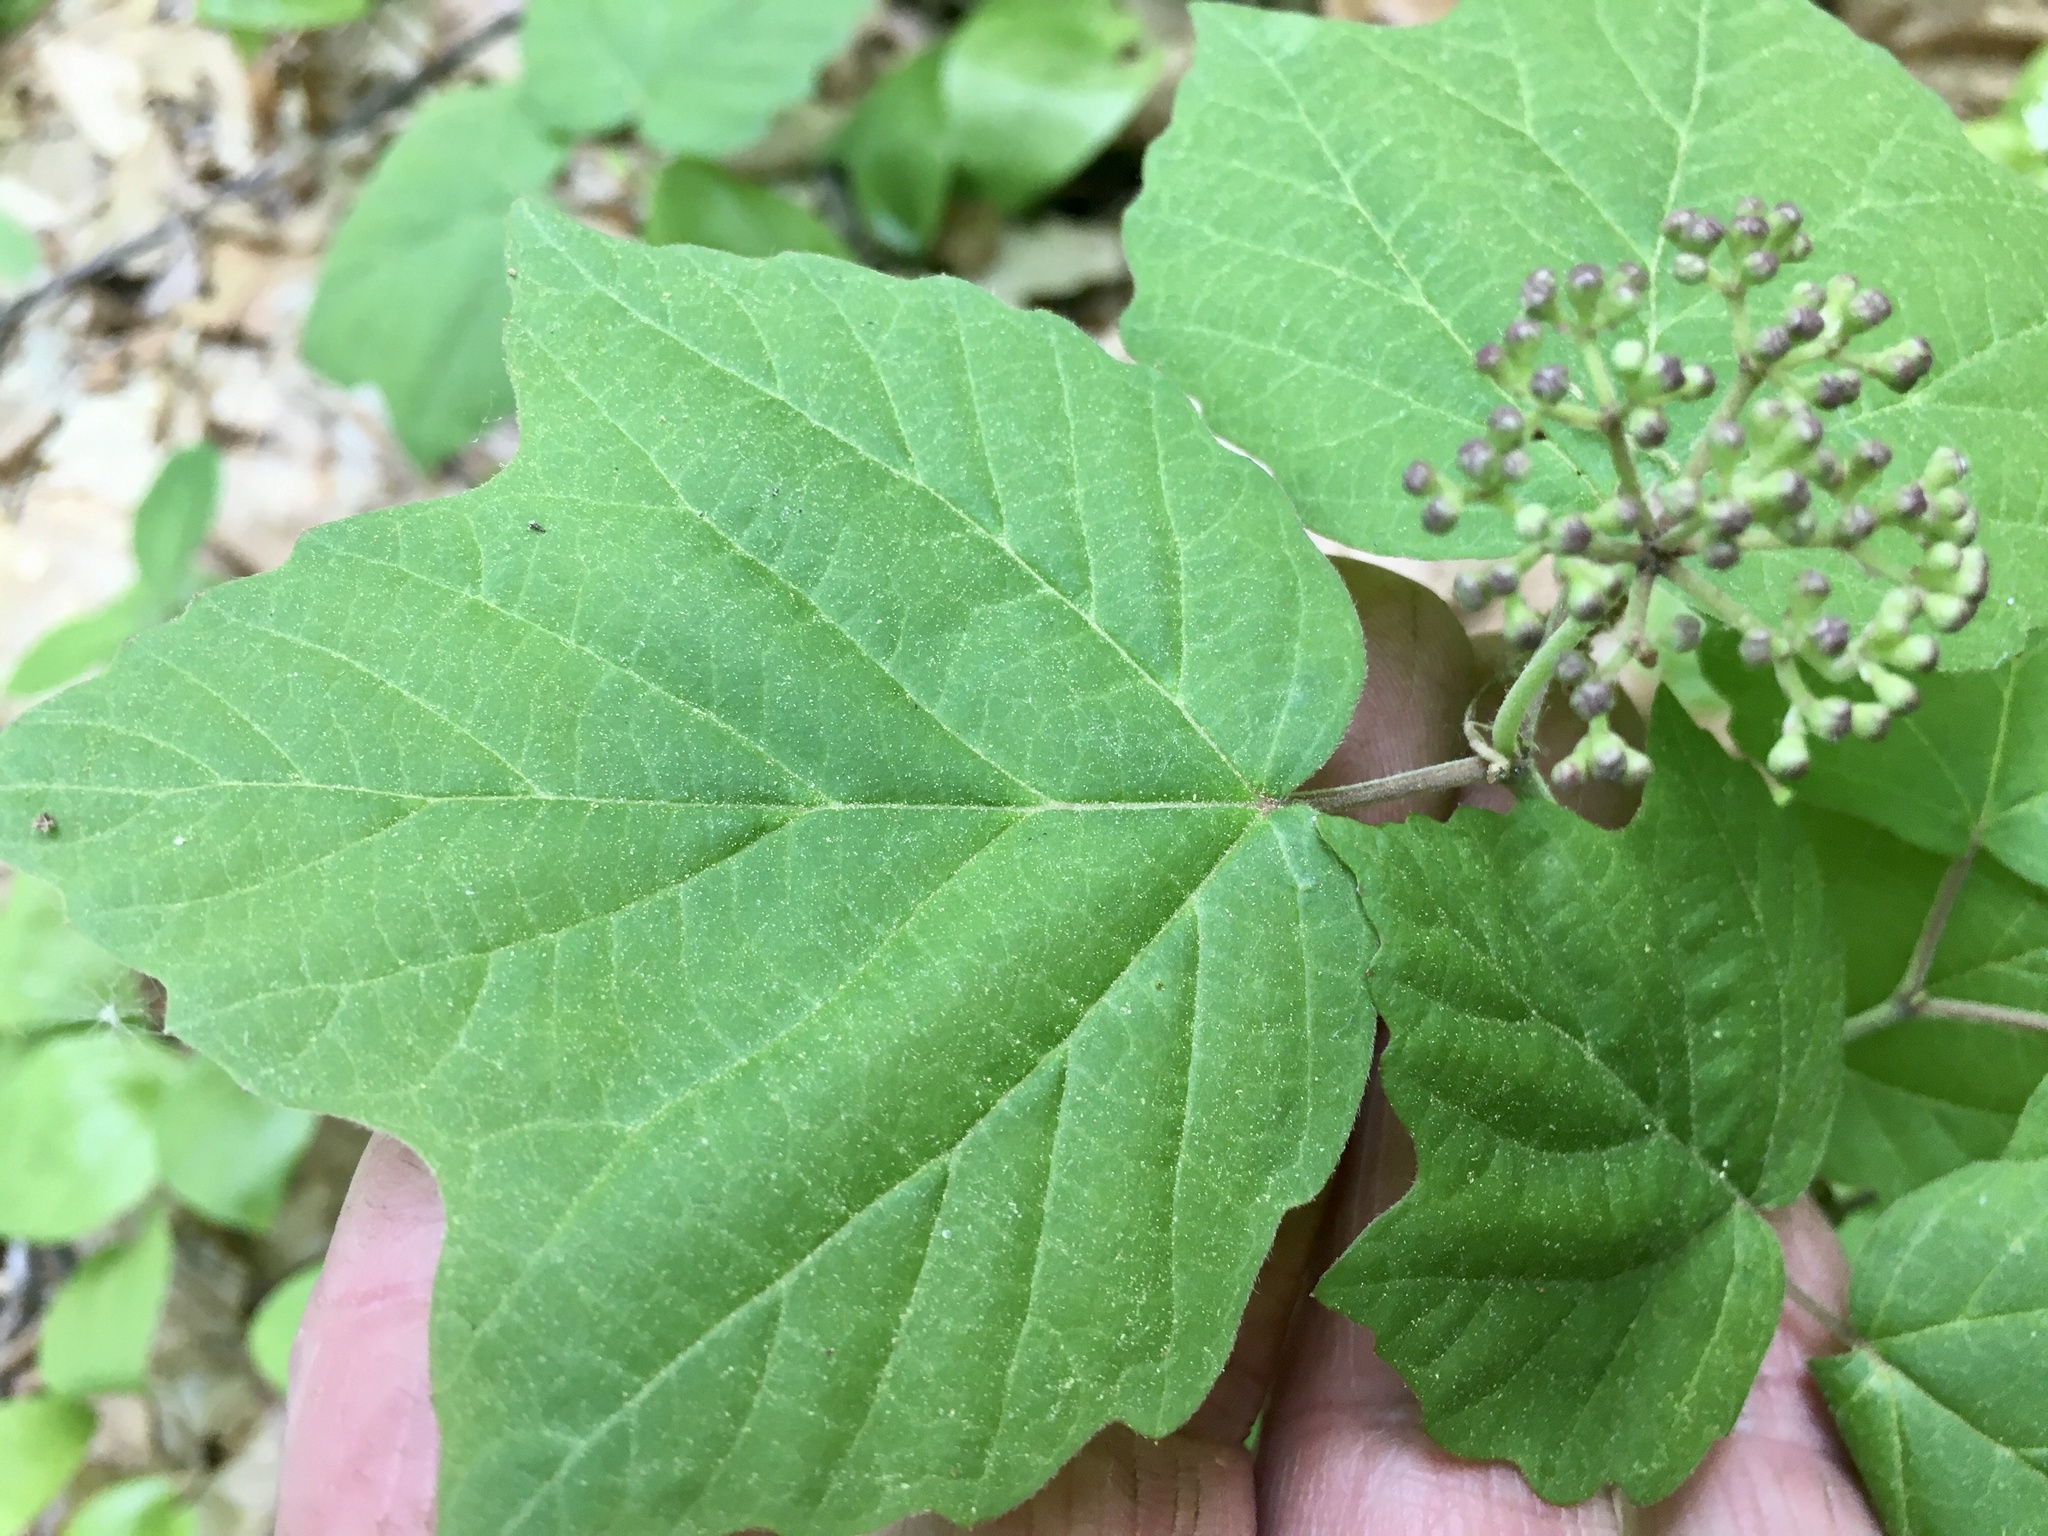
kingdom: Plantae
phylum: Tracheophyta
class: Magnoliopsida
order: Dipsacales
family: Viburnaceae
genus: Viburnum
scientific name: Viburnum acerifolium
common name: Dockmackie
